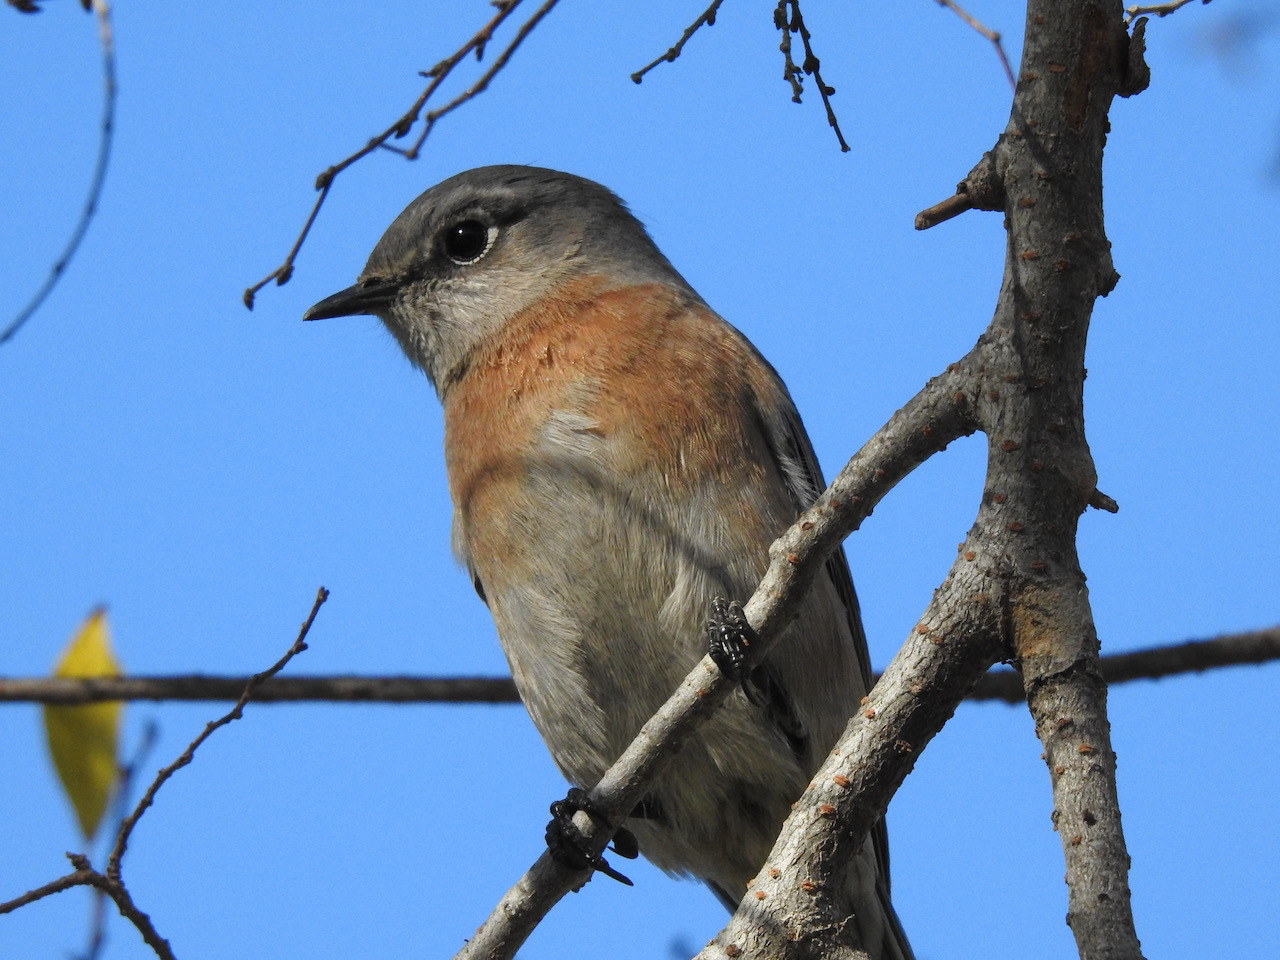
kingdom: Animalia
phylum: Chordata
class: Aves
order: Passeriformes
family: Turdidae
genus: Sialia
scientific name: Sialia mexicana
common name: Western bluebird
